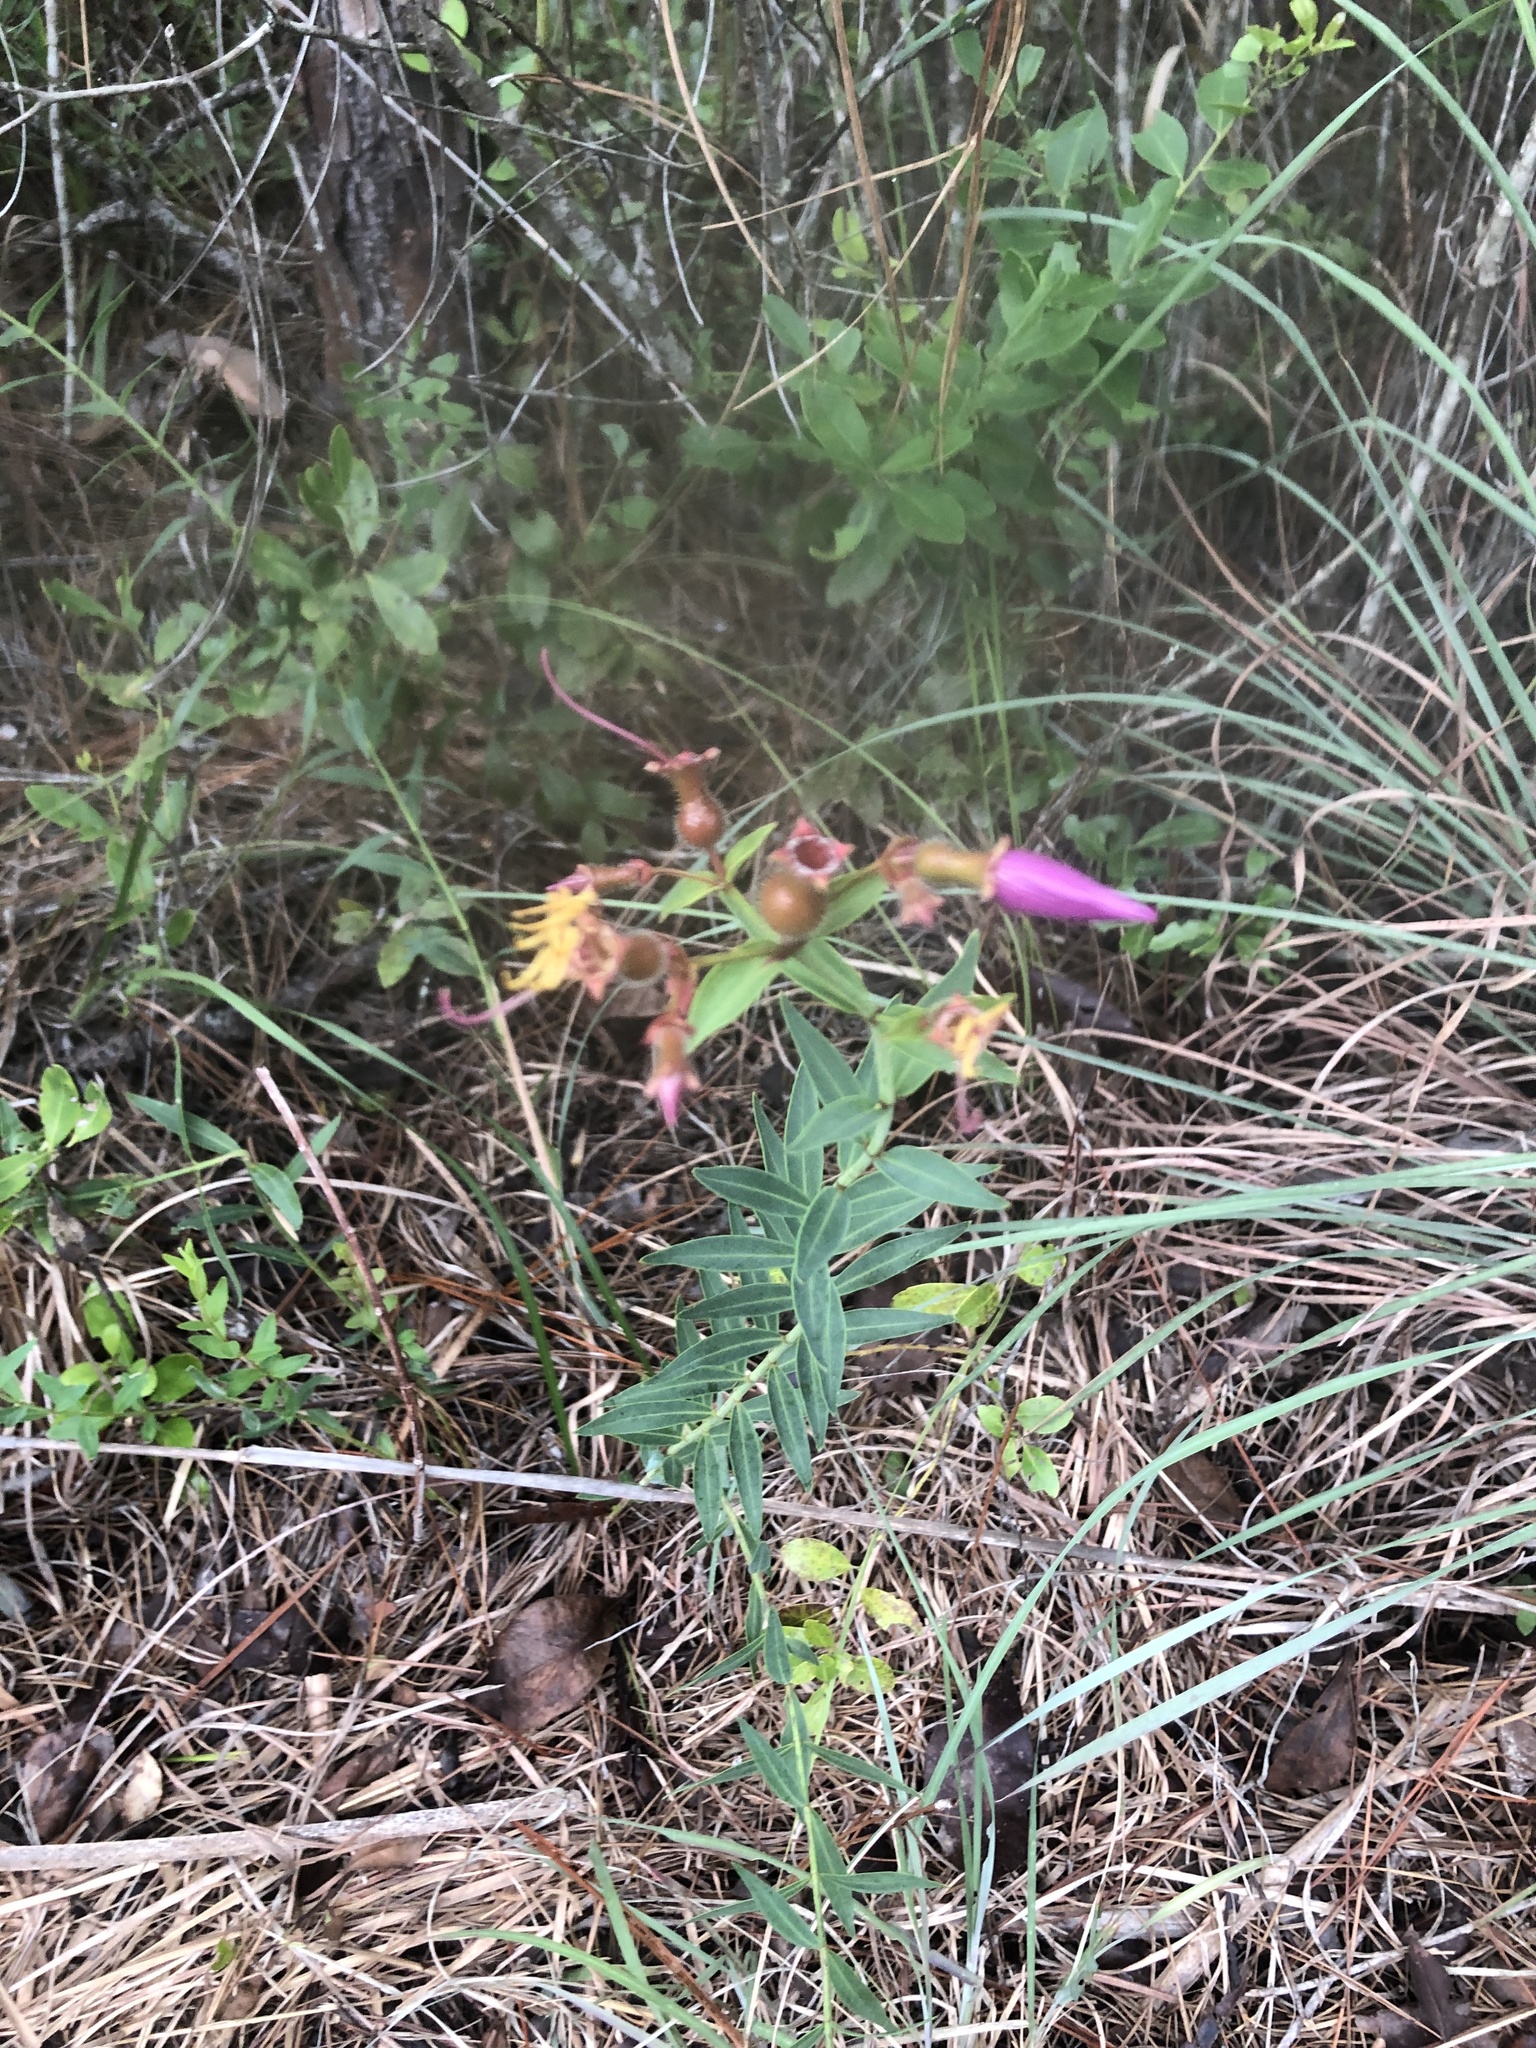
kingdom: Plantae
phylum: Tracheophyta
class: Magnoliopsida
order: Myrtales
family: Melastomataceae
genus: Rhexia
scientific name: Rhexia alifanus
